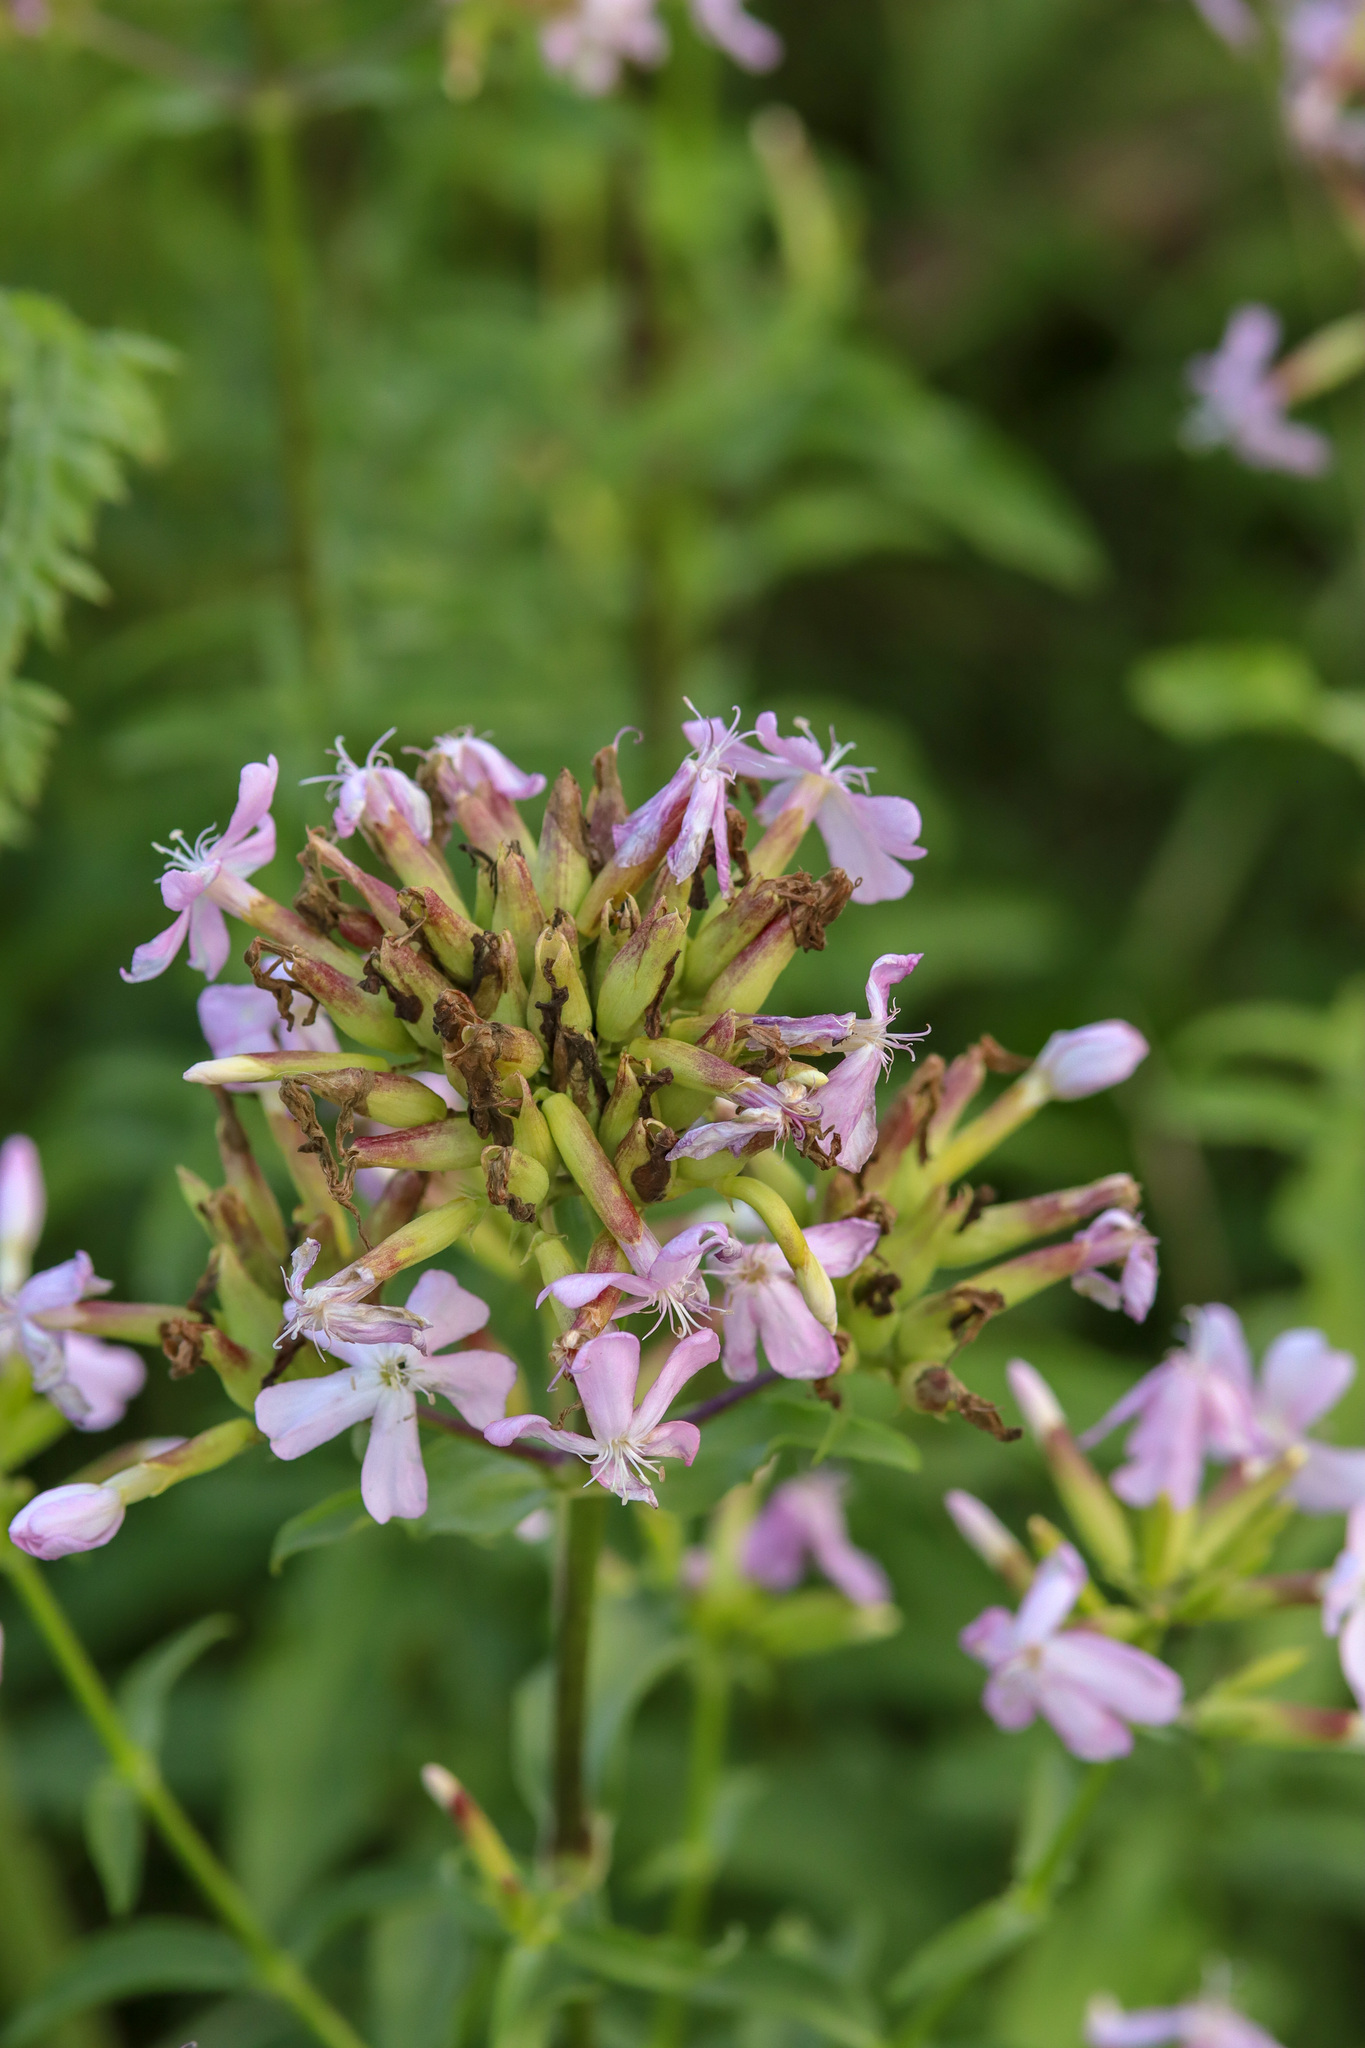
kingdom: Plantae
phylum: Tracheophyta
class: Magnoliopsida
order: Caryophyllales
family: Caryophyllaceae
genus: Saponaria
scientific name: Saponaria officinalis
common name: Soapwort
